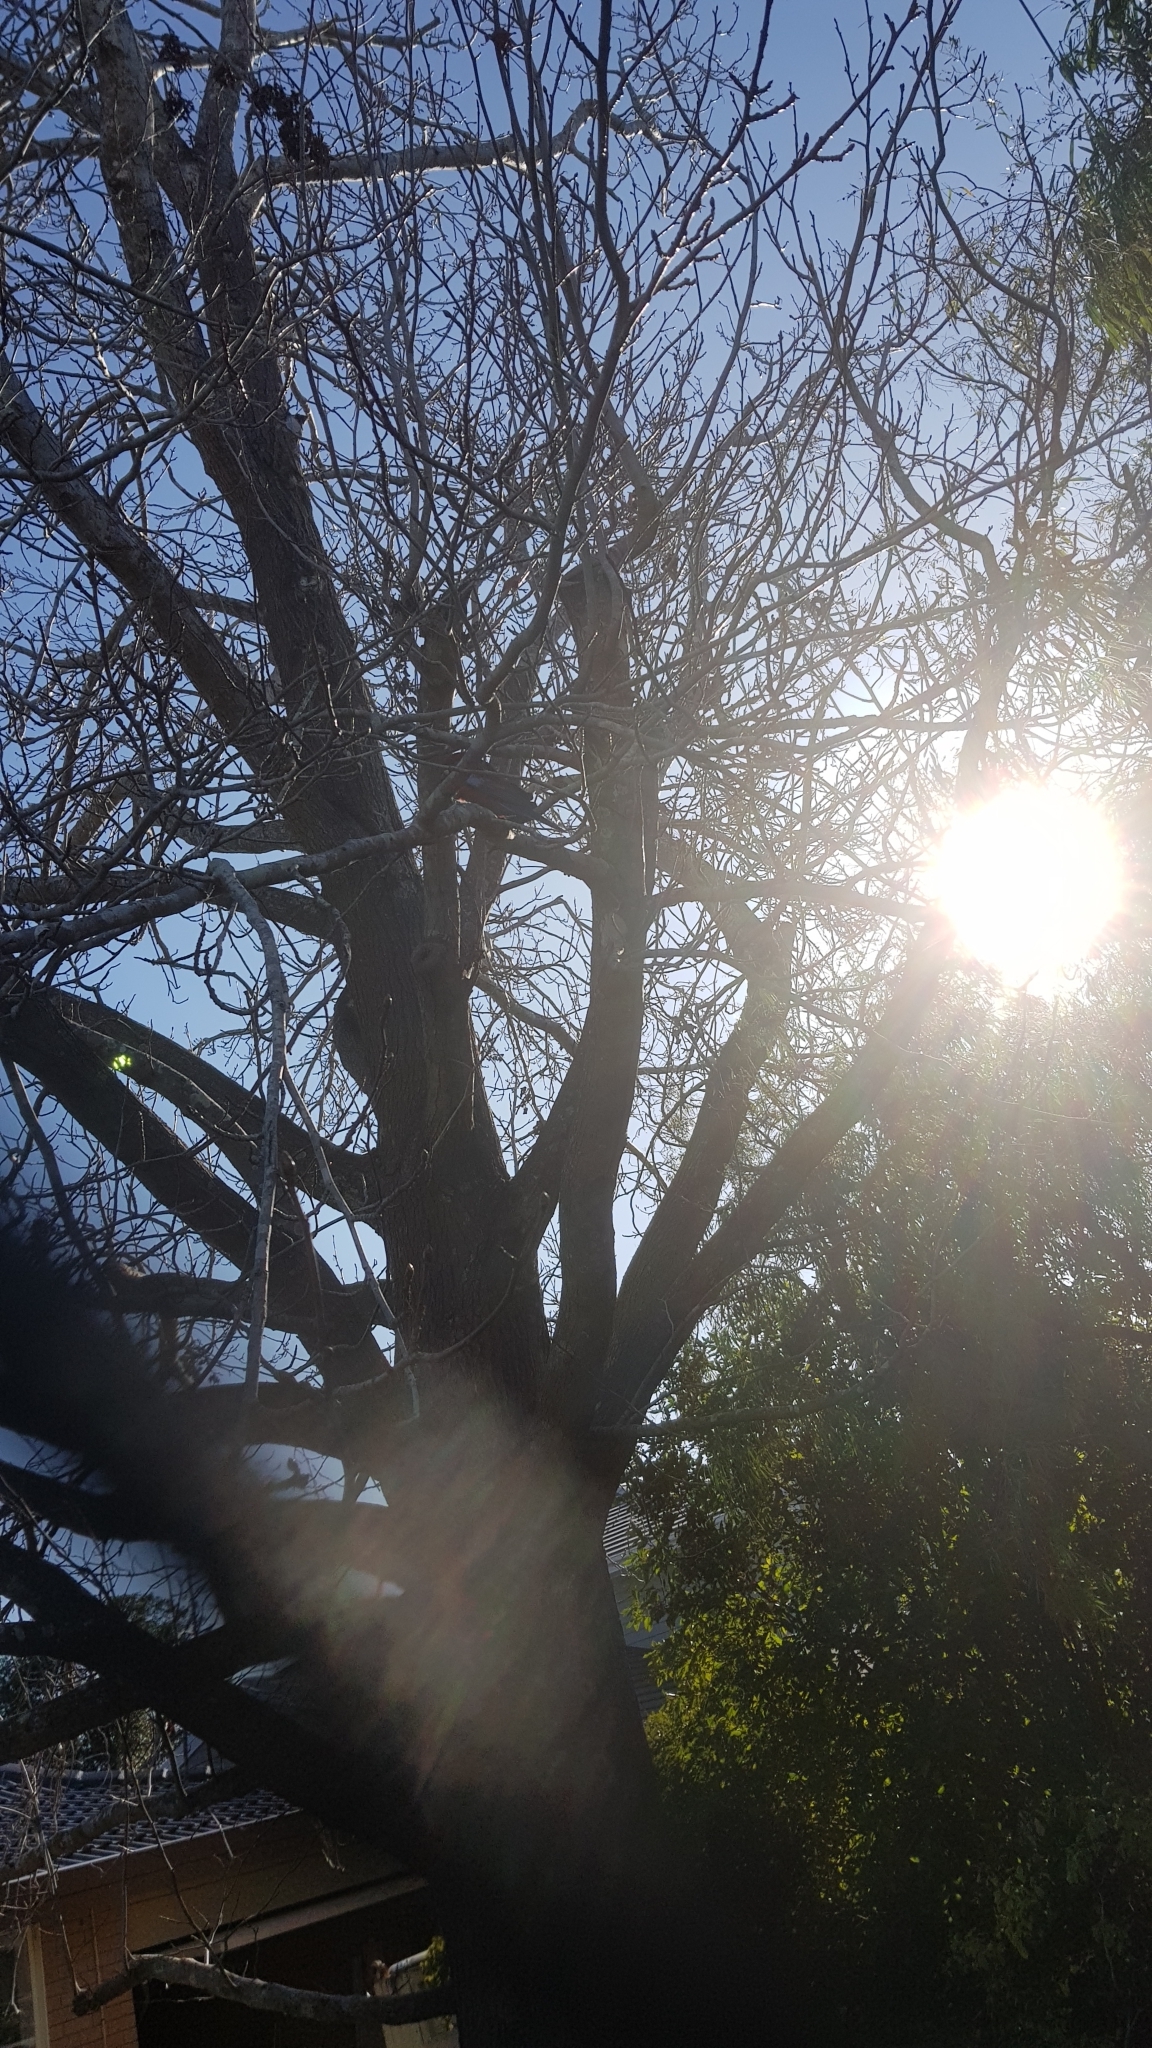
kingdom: Animalia
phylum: Chordata
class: Aves
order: Psittaciformes
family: Psittacidae
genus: Platycercus
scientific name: Platycercus elegans
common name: Crimson rosella
